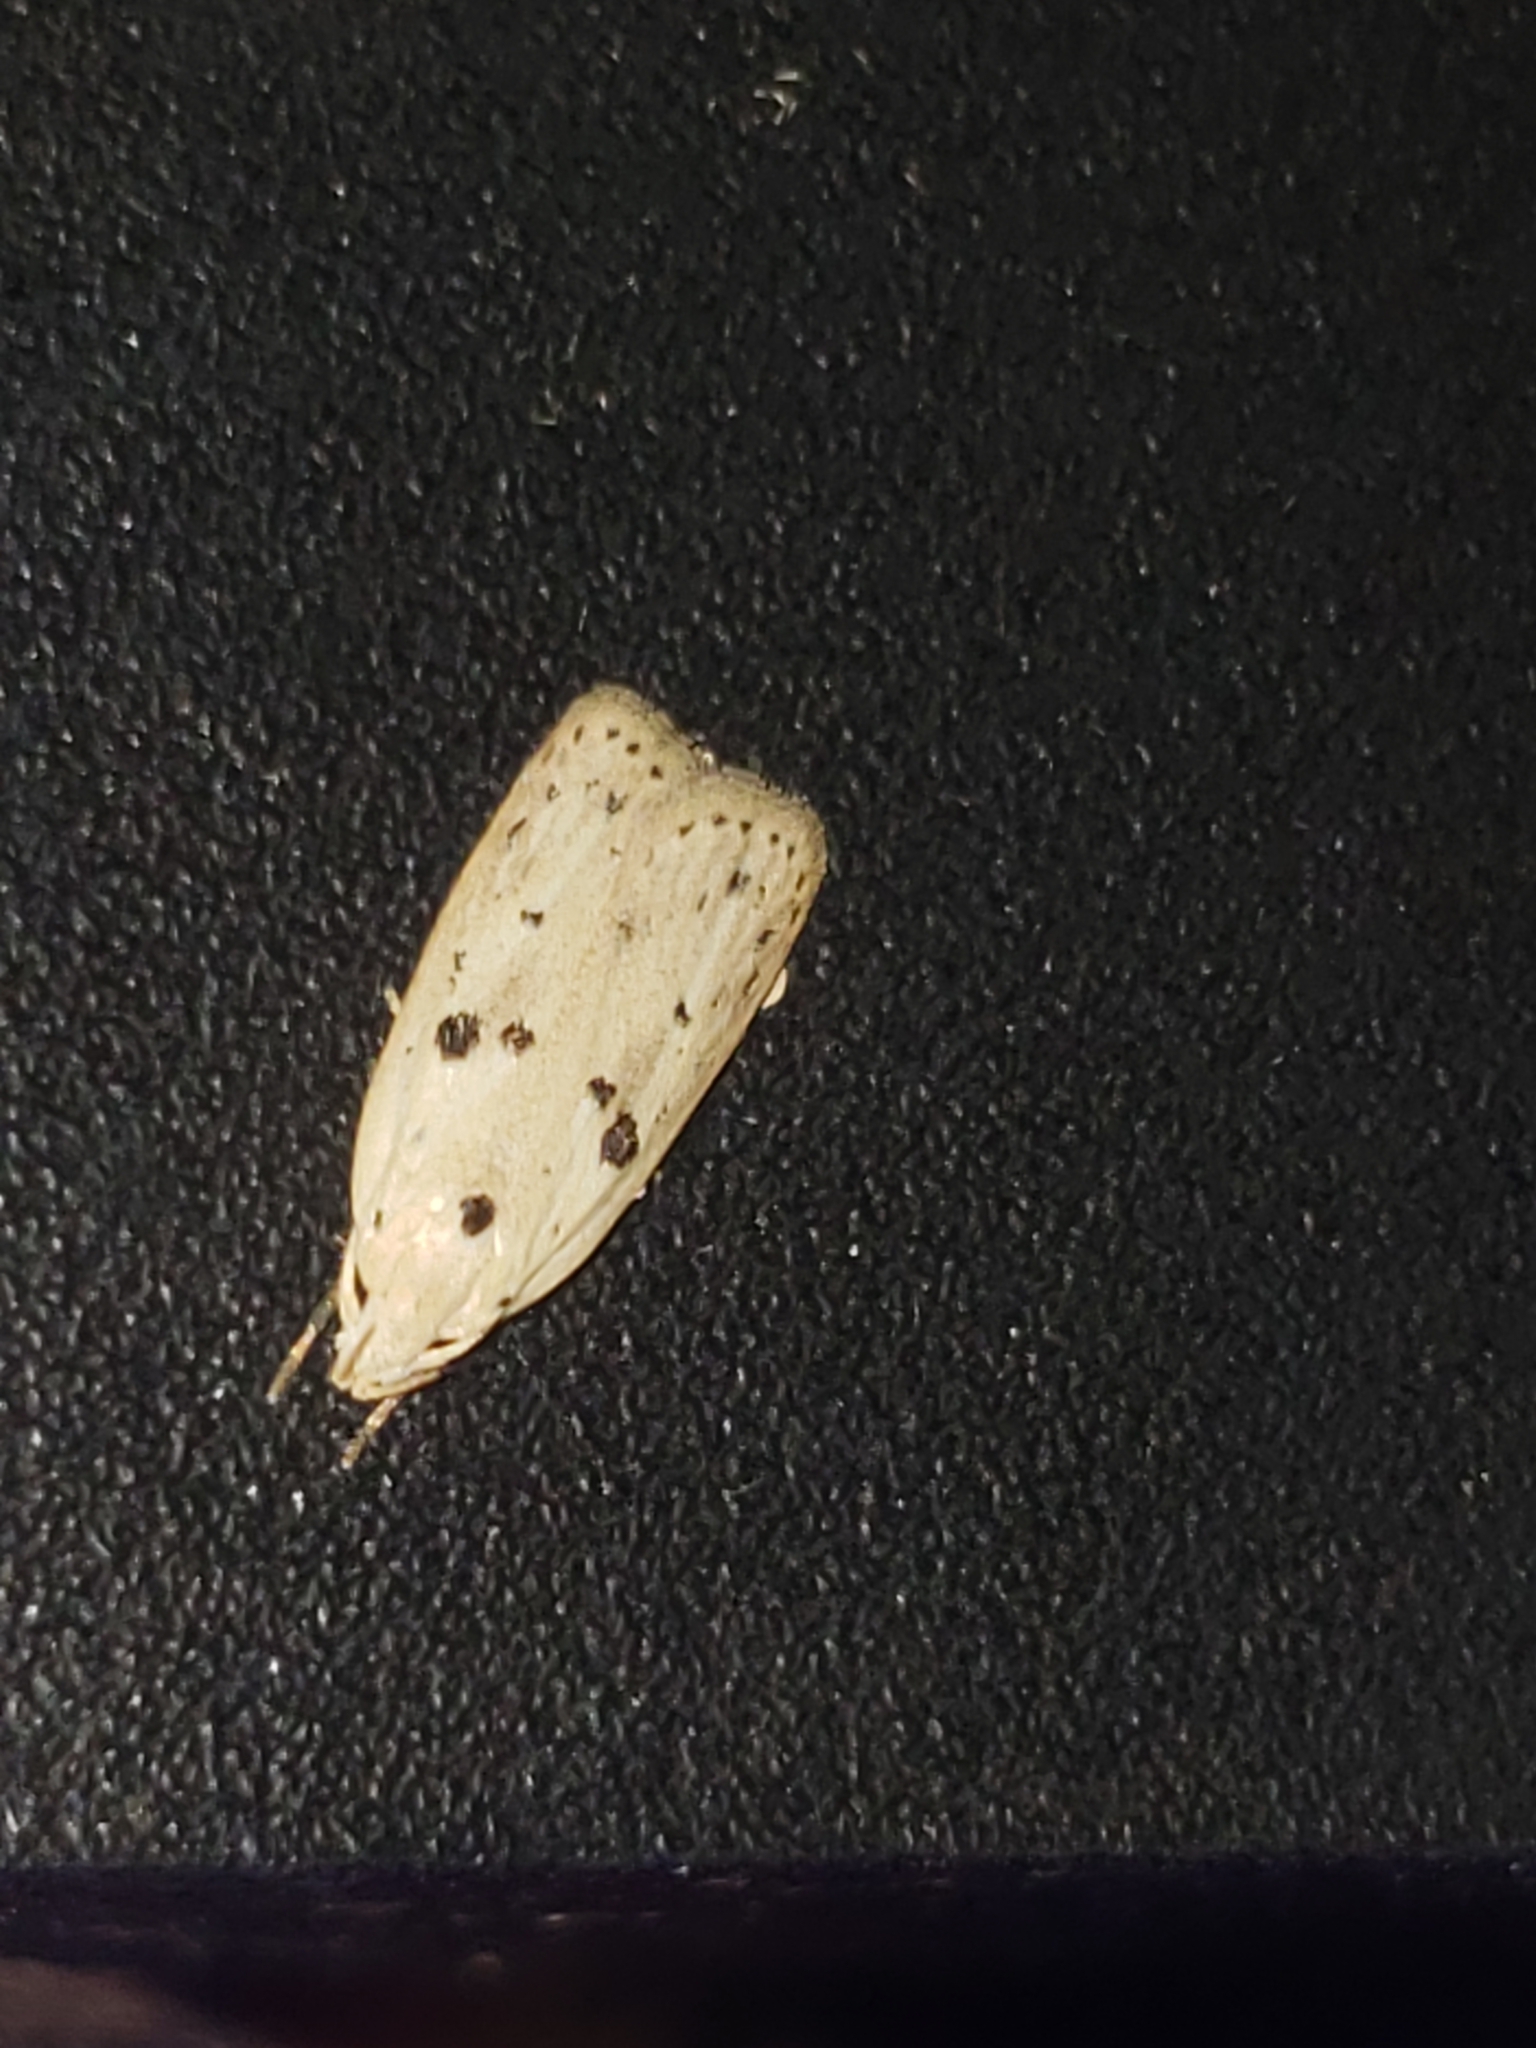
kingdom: Animalia
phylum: Arthropoda
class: Insecta
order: Lepidoptera
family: Peleopodidae
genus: Scythropiodes
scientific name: Scythropiodes issikii
